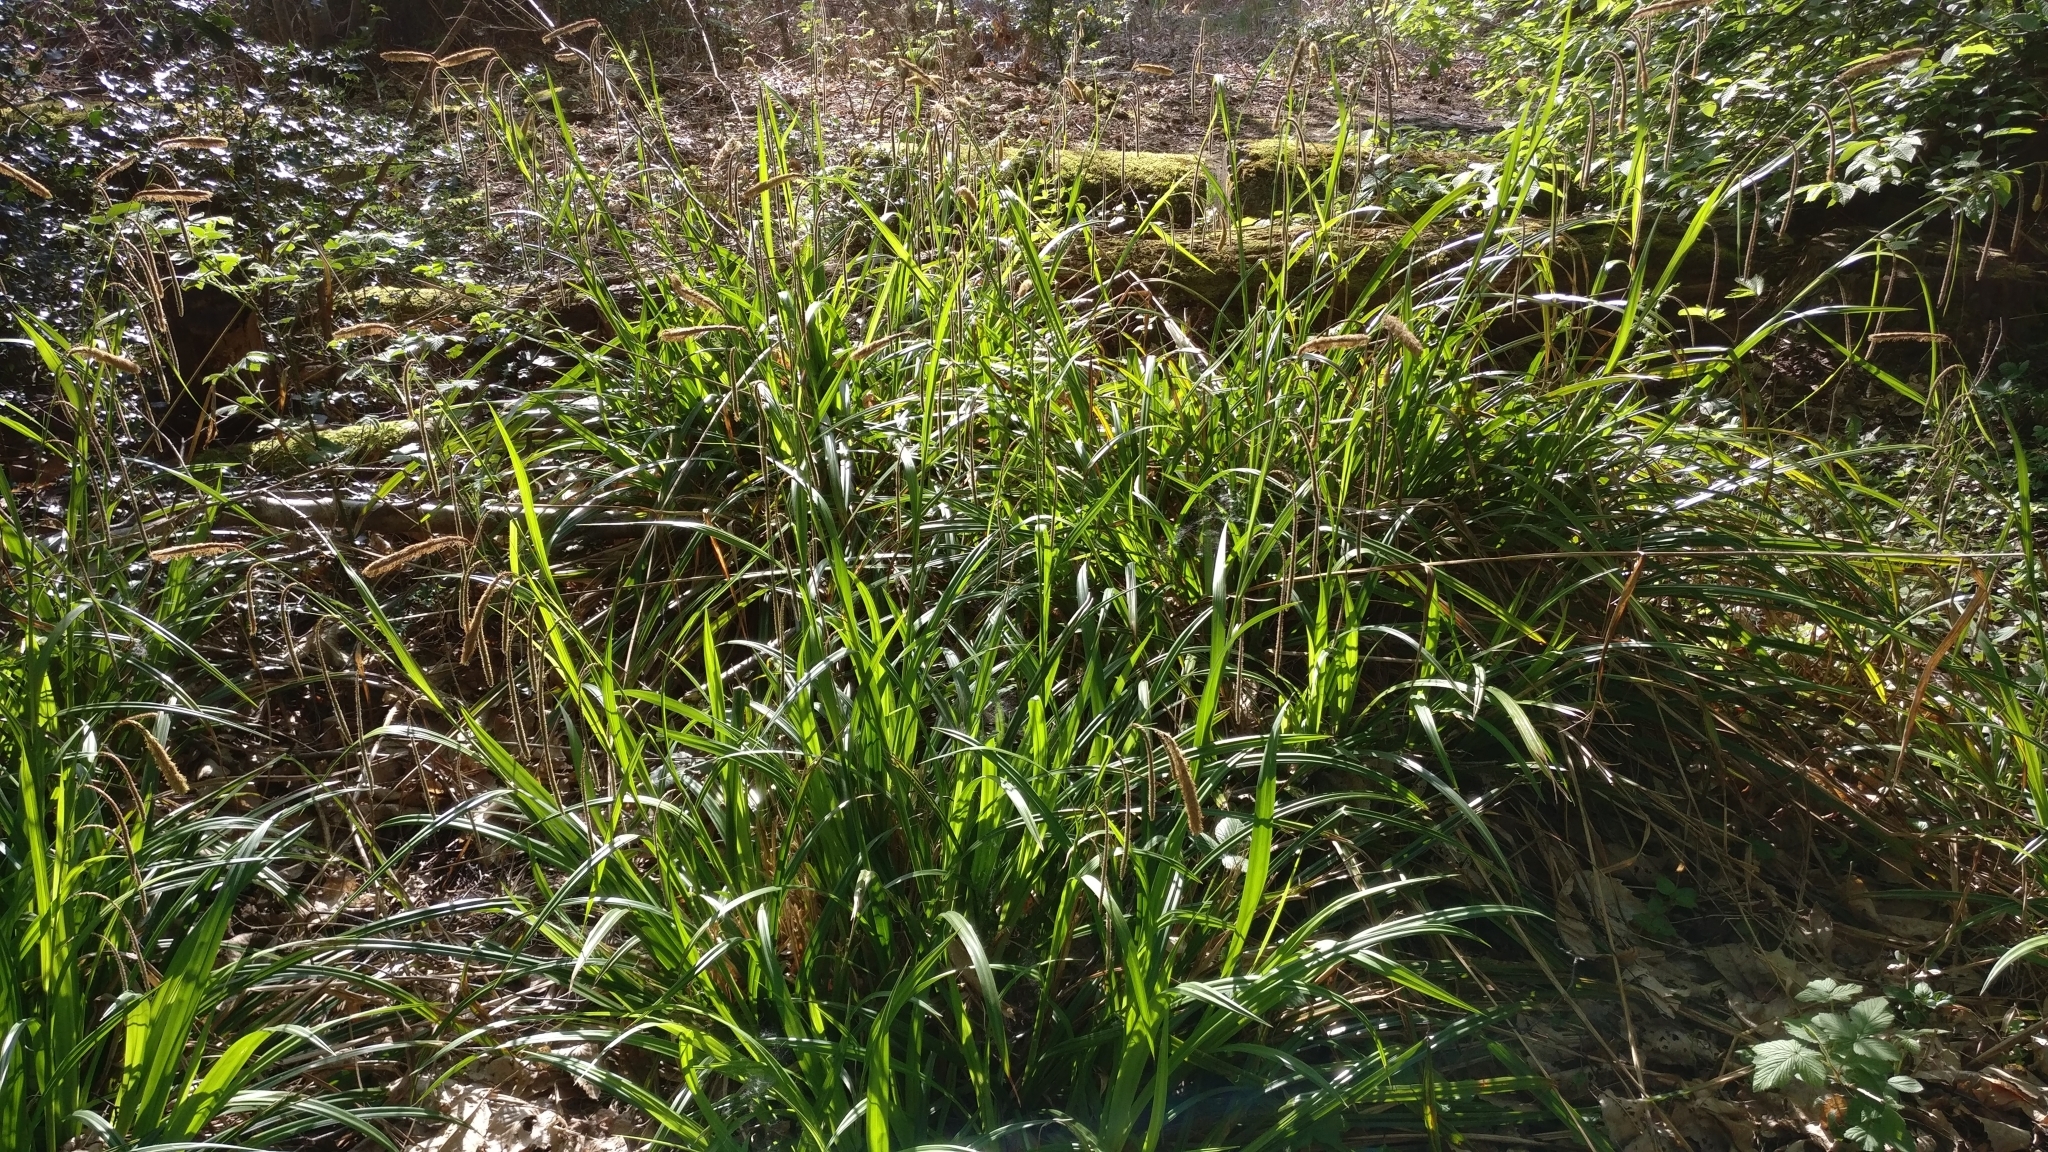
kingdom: Plantae
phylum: Tracheophyta
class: Liliopsida
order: Poales
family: Cyperaceae
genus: Carex
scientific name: Carex pendula
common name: Pendulous sedge
